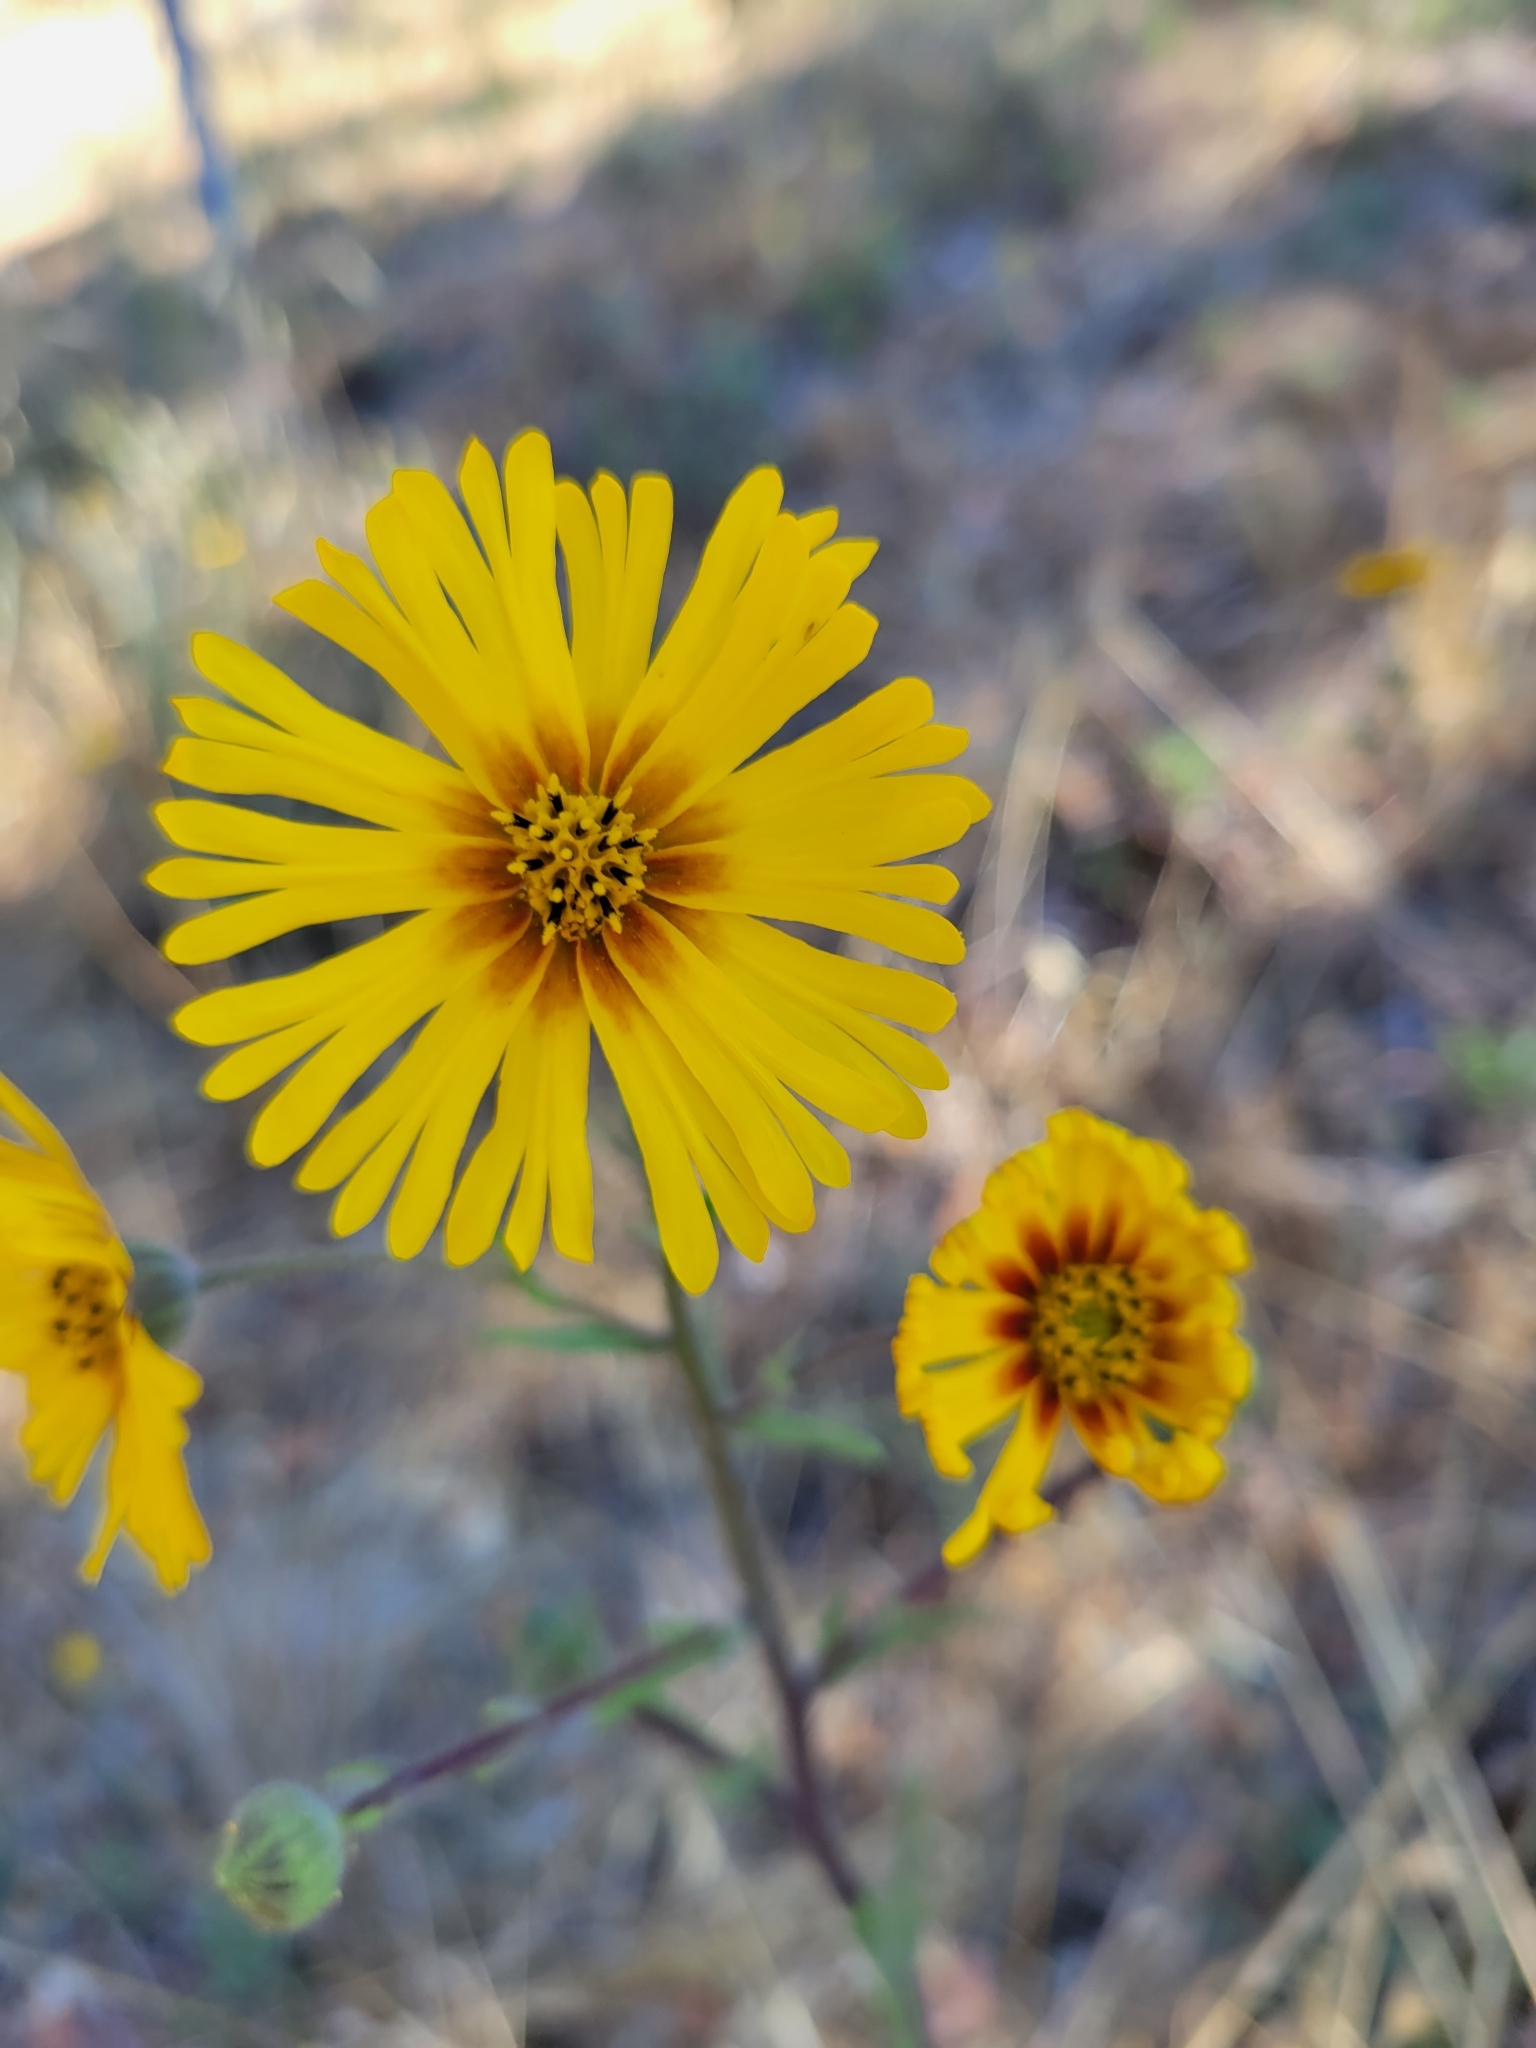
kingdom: Plantae
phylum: Tracheophyta
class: Magnoliopsida
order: Asterales
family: Asteraceae
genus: Madia
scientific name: Madia elegans
